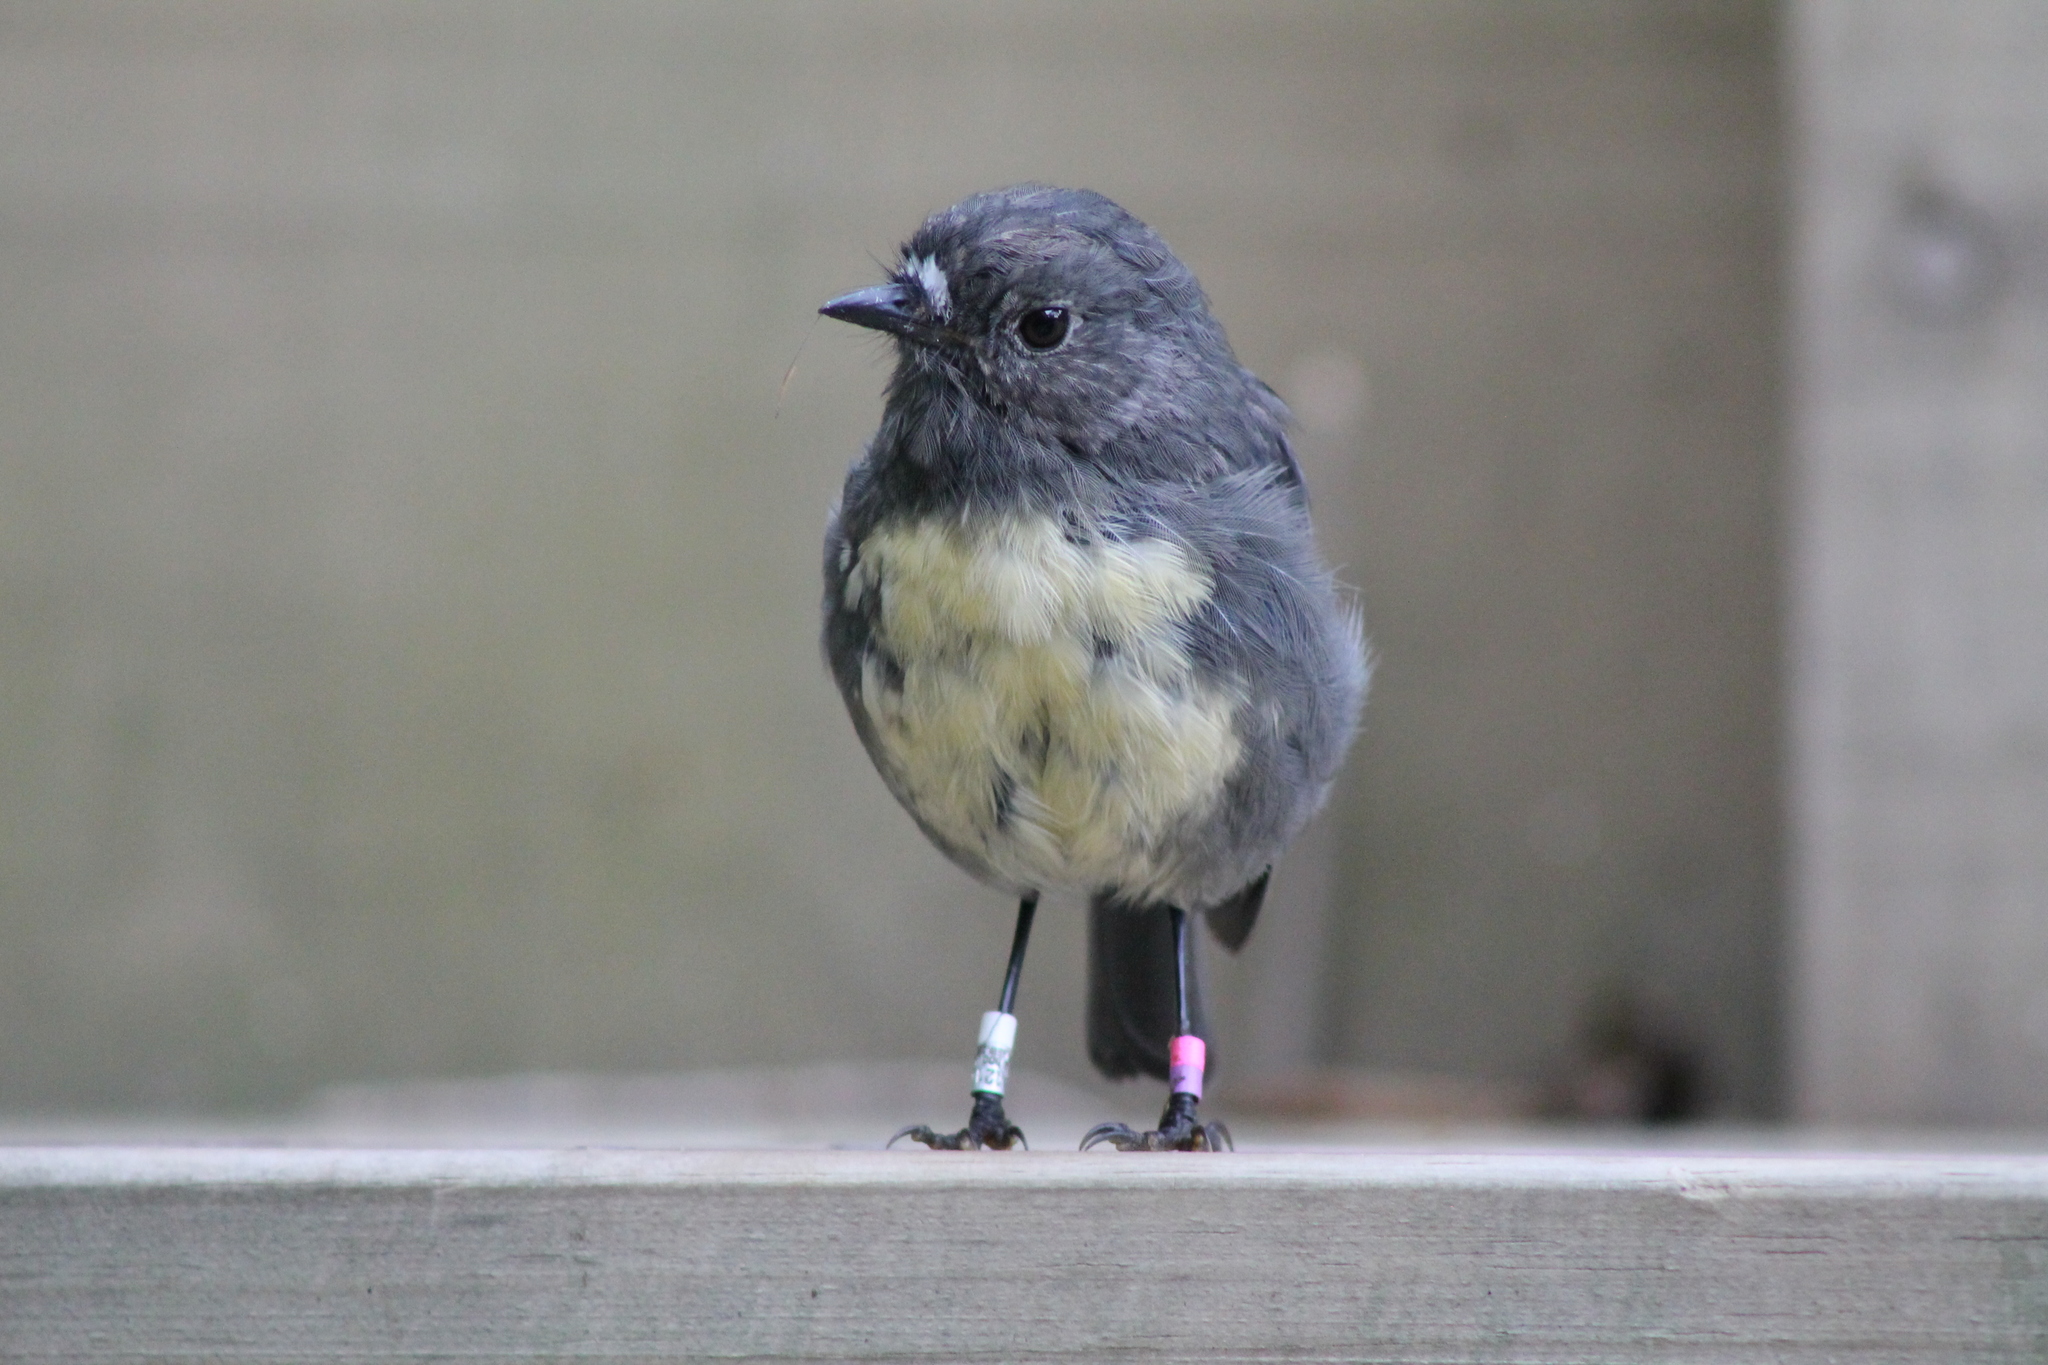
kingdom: Animalia
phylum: Chordata
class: Aves
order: Passeriformes
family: Petroicidae
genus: Petroica
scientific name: Petroica australis
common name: New zealand robin
